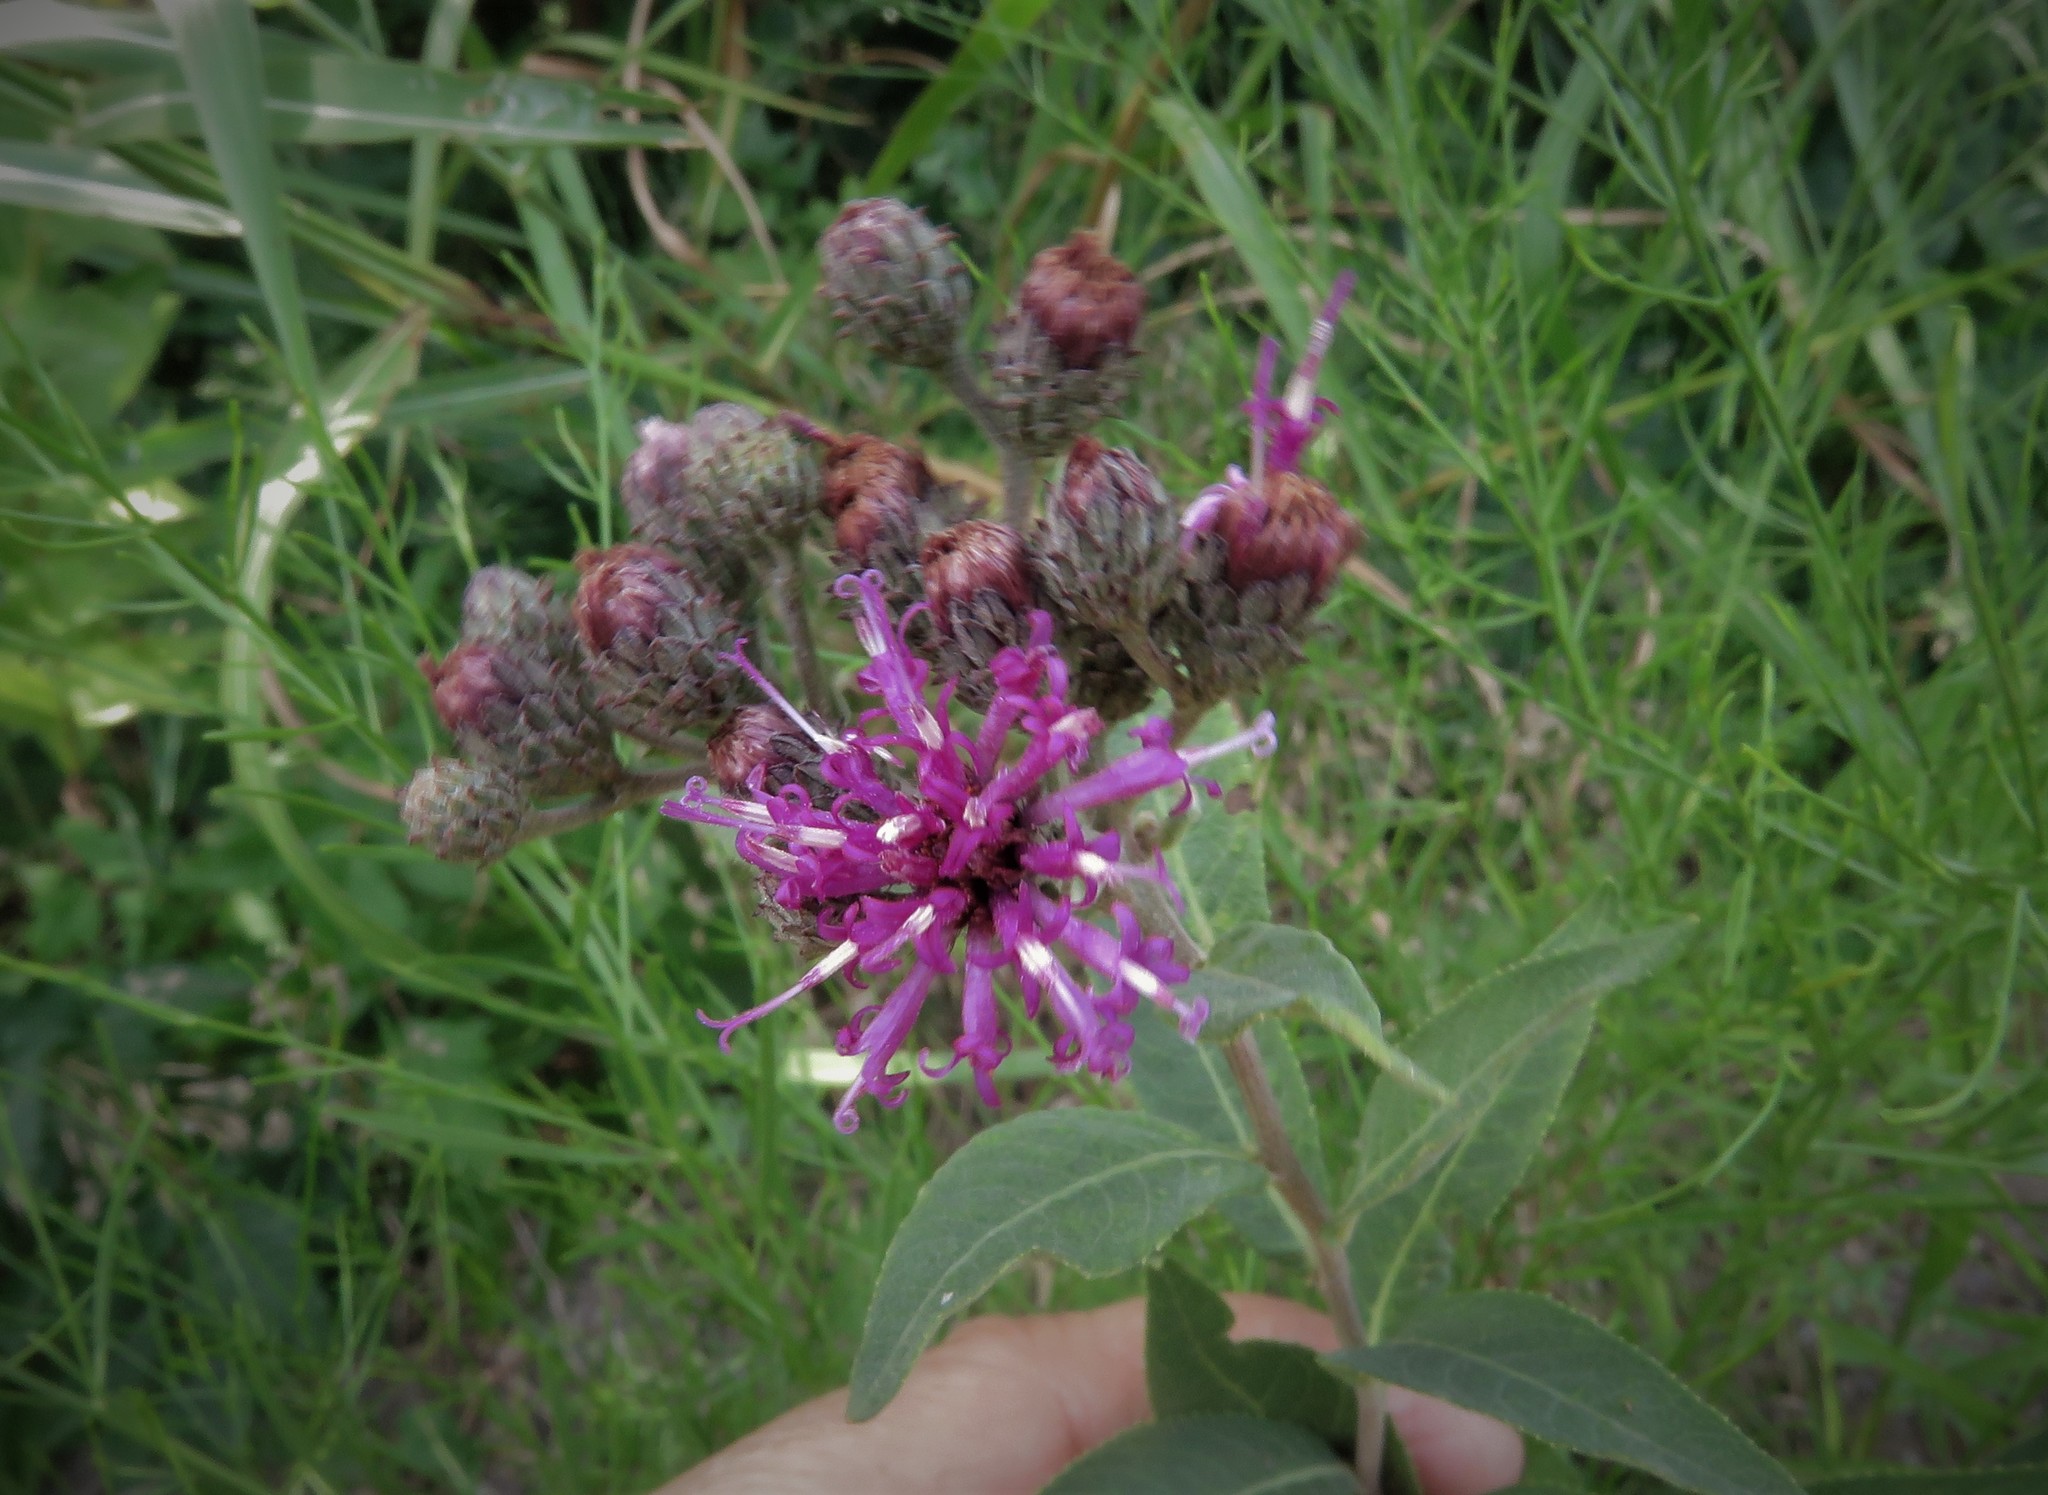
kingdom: Plantae
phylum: Tracheophyta
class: Magnoliopsida
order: Asterales
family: Asteraceae
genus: Vernonia
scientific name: Vernonia baldwinii
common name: Western ironweed
